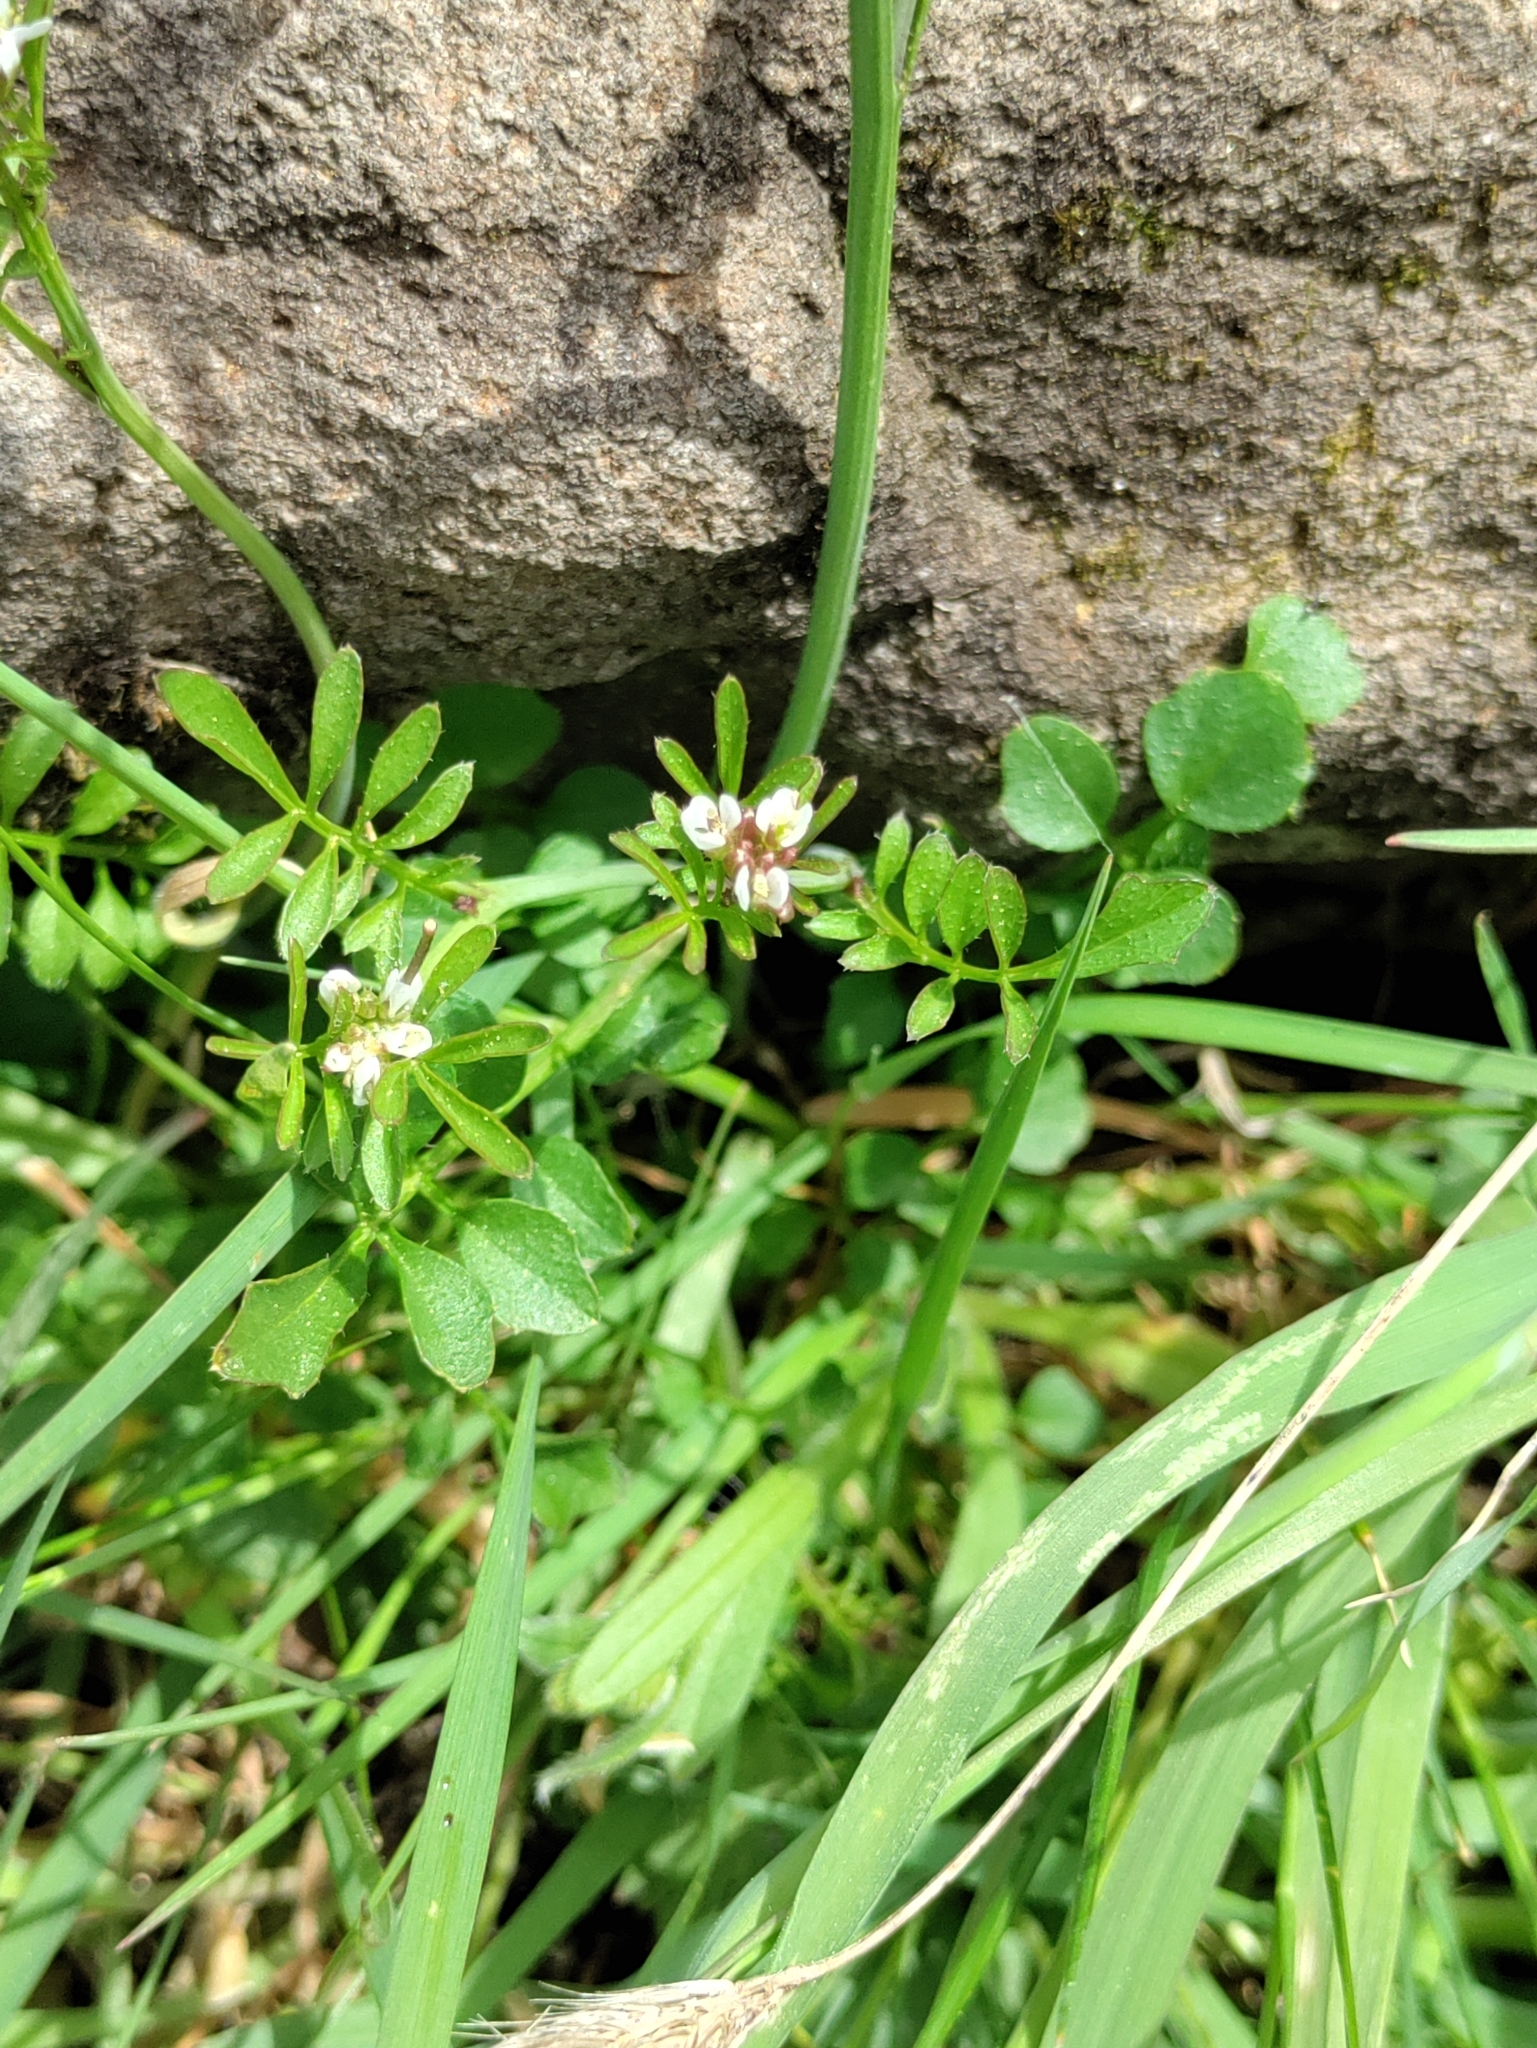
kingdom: Plantae
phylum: Tracheophyta
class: Magnoliopsida
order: Brassicales
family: Brassicaceae
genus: Cardamine
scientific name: Cardamine hirsuta
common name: Hairy bittercress
